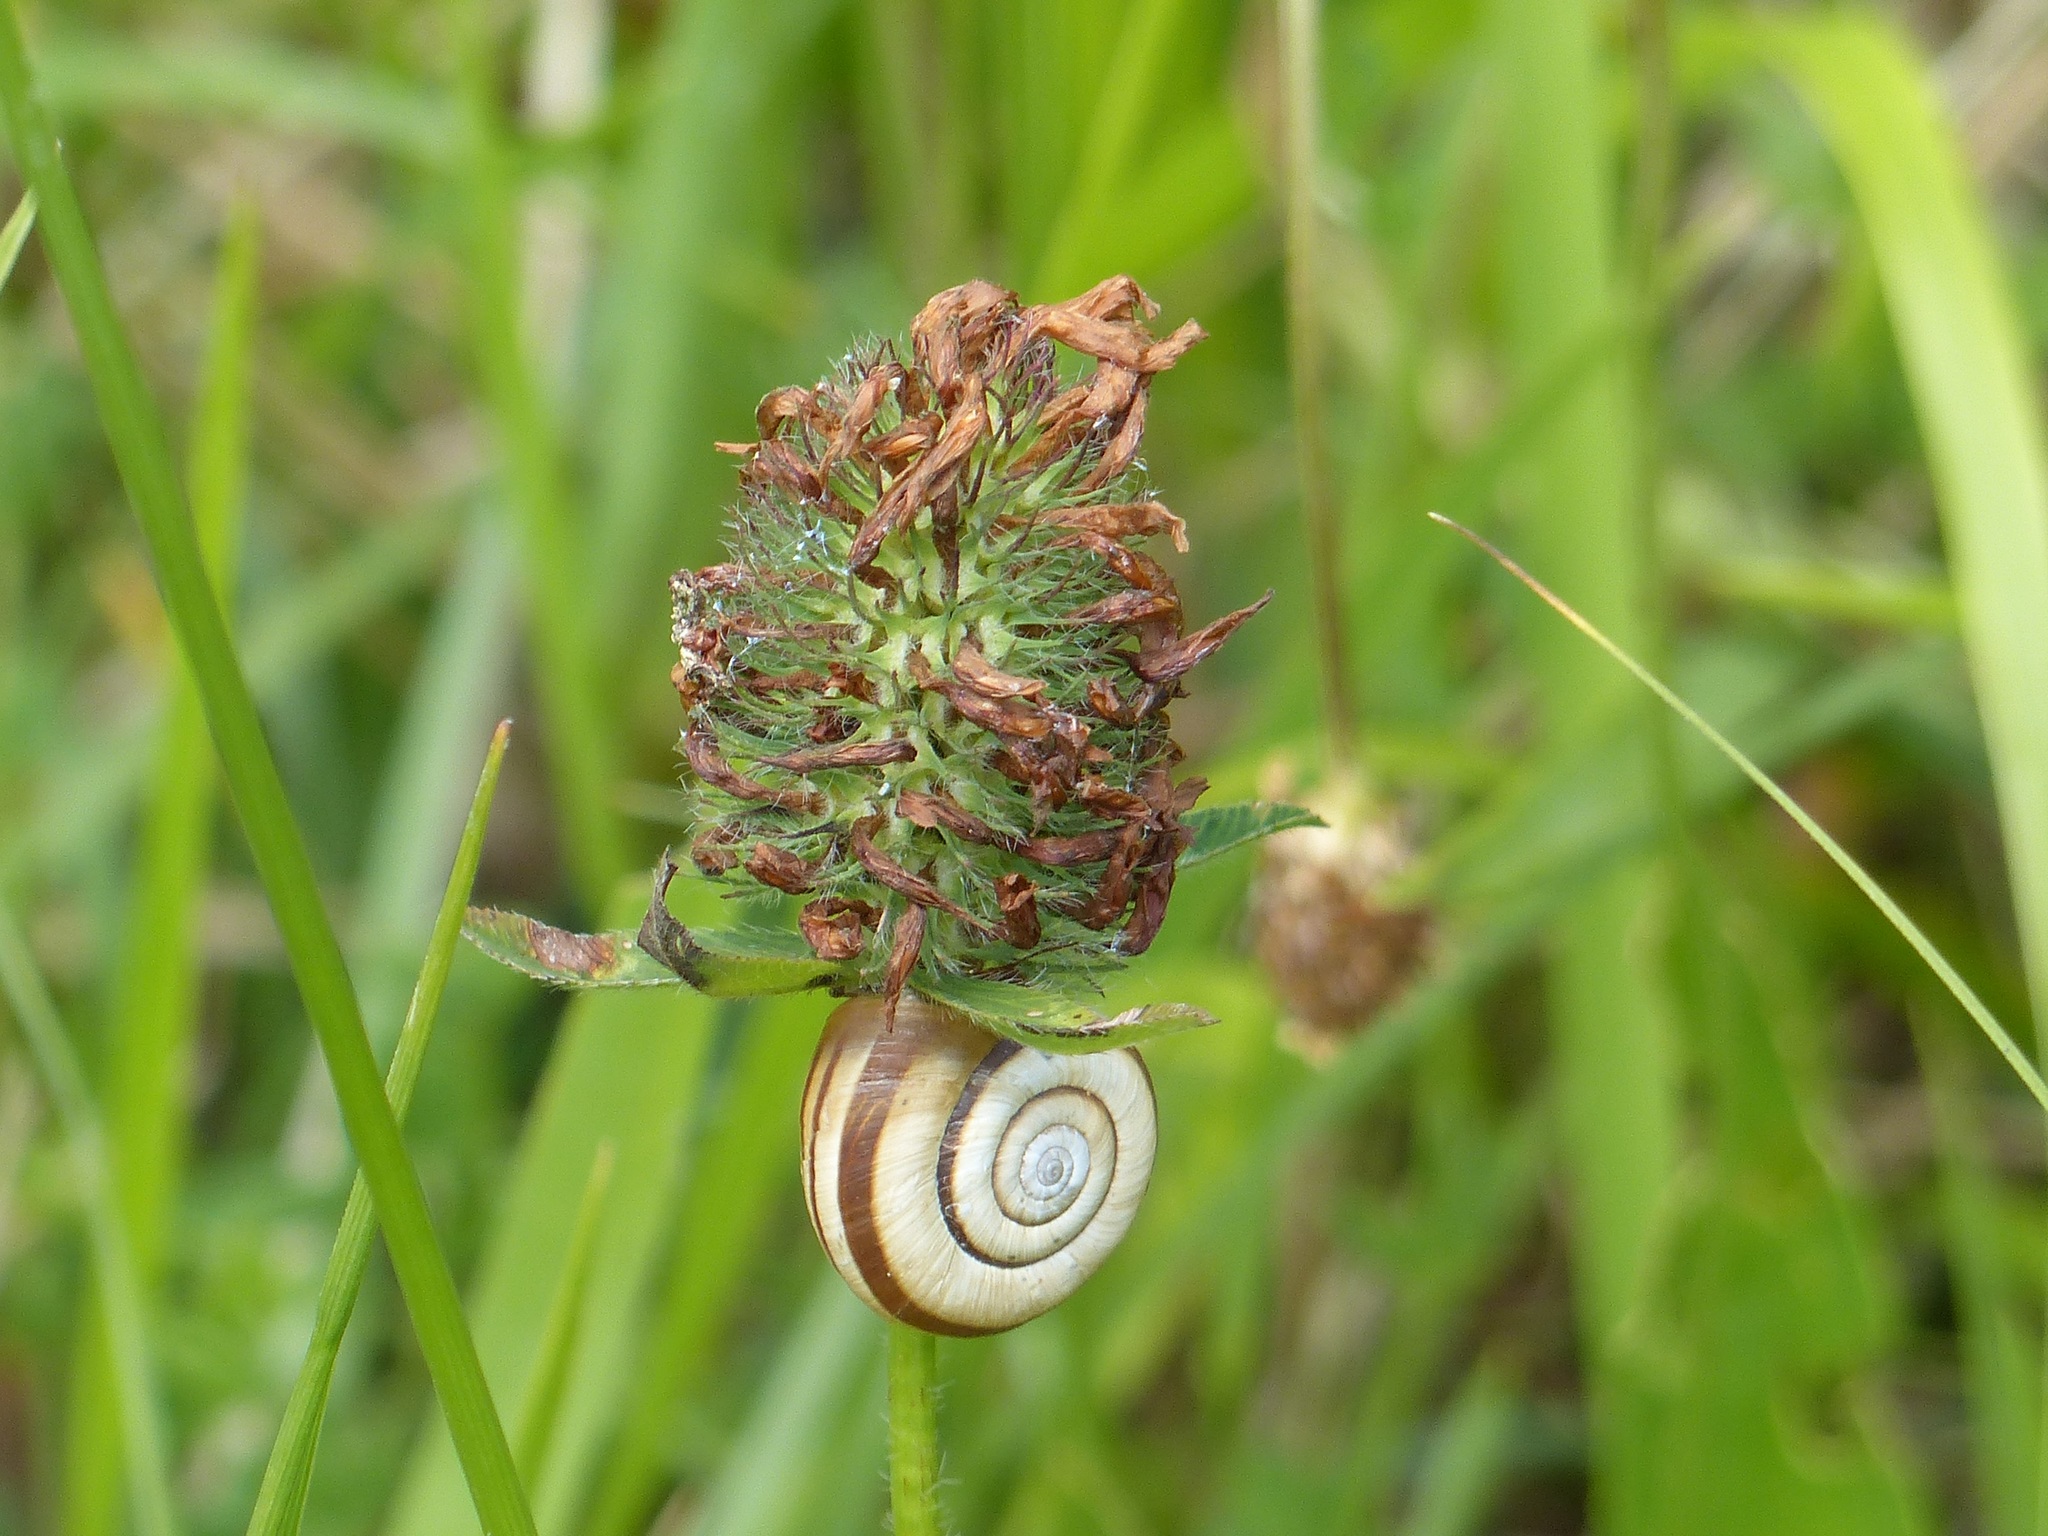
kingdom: Animalia
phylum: Mollusca
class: Gastropoda
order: Stylommatophora
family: Geomitridae
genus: Helicella
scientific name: Helicella itala
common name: Heath snail
